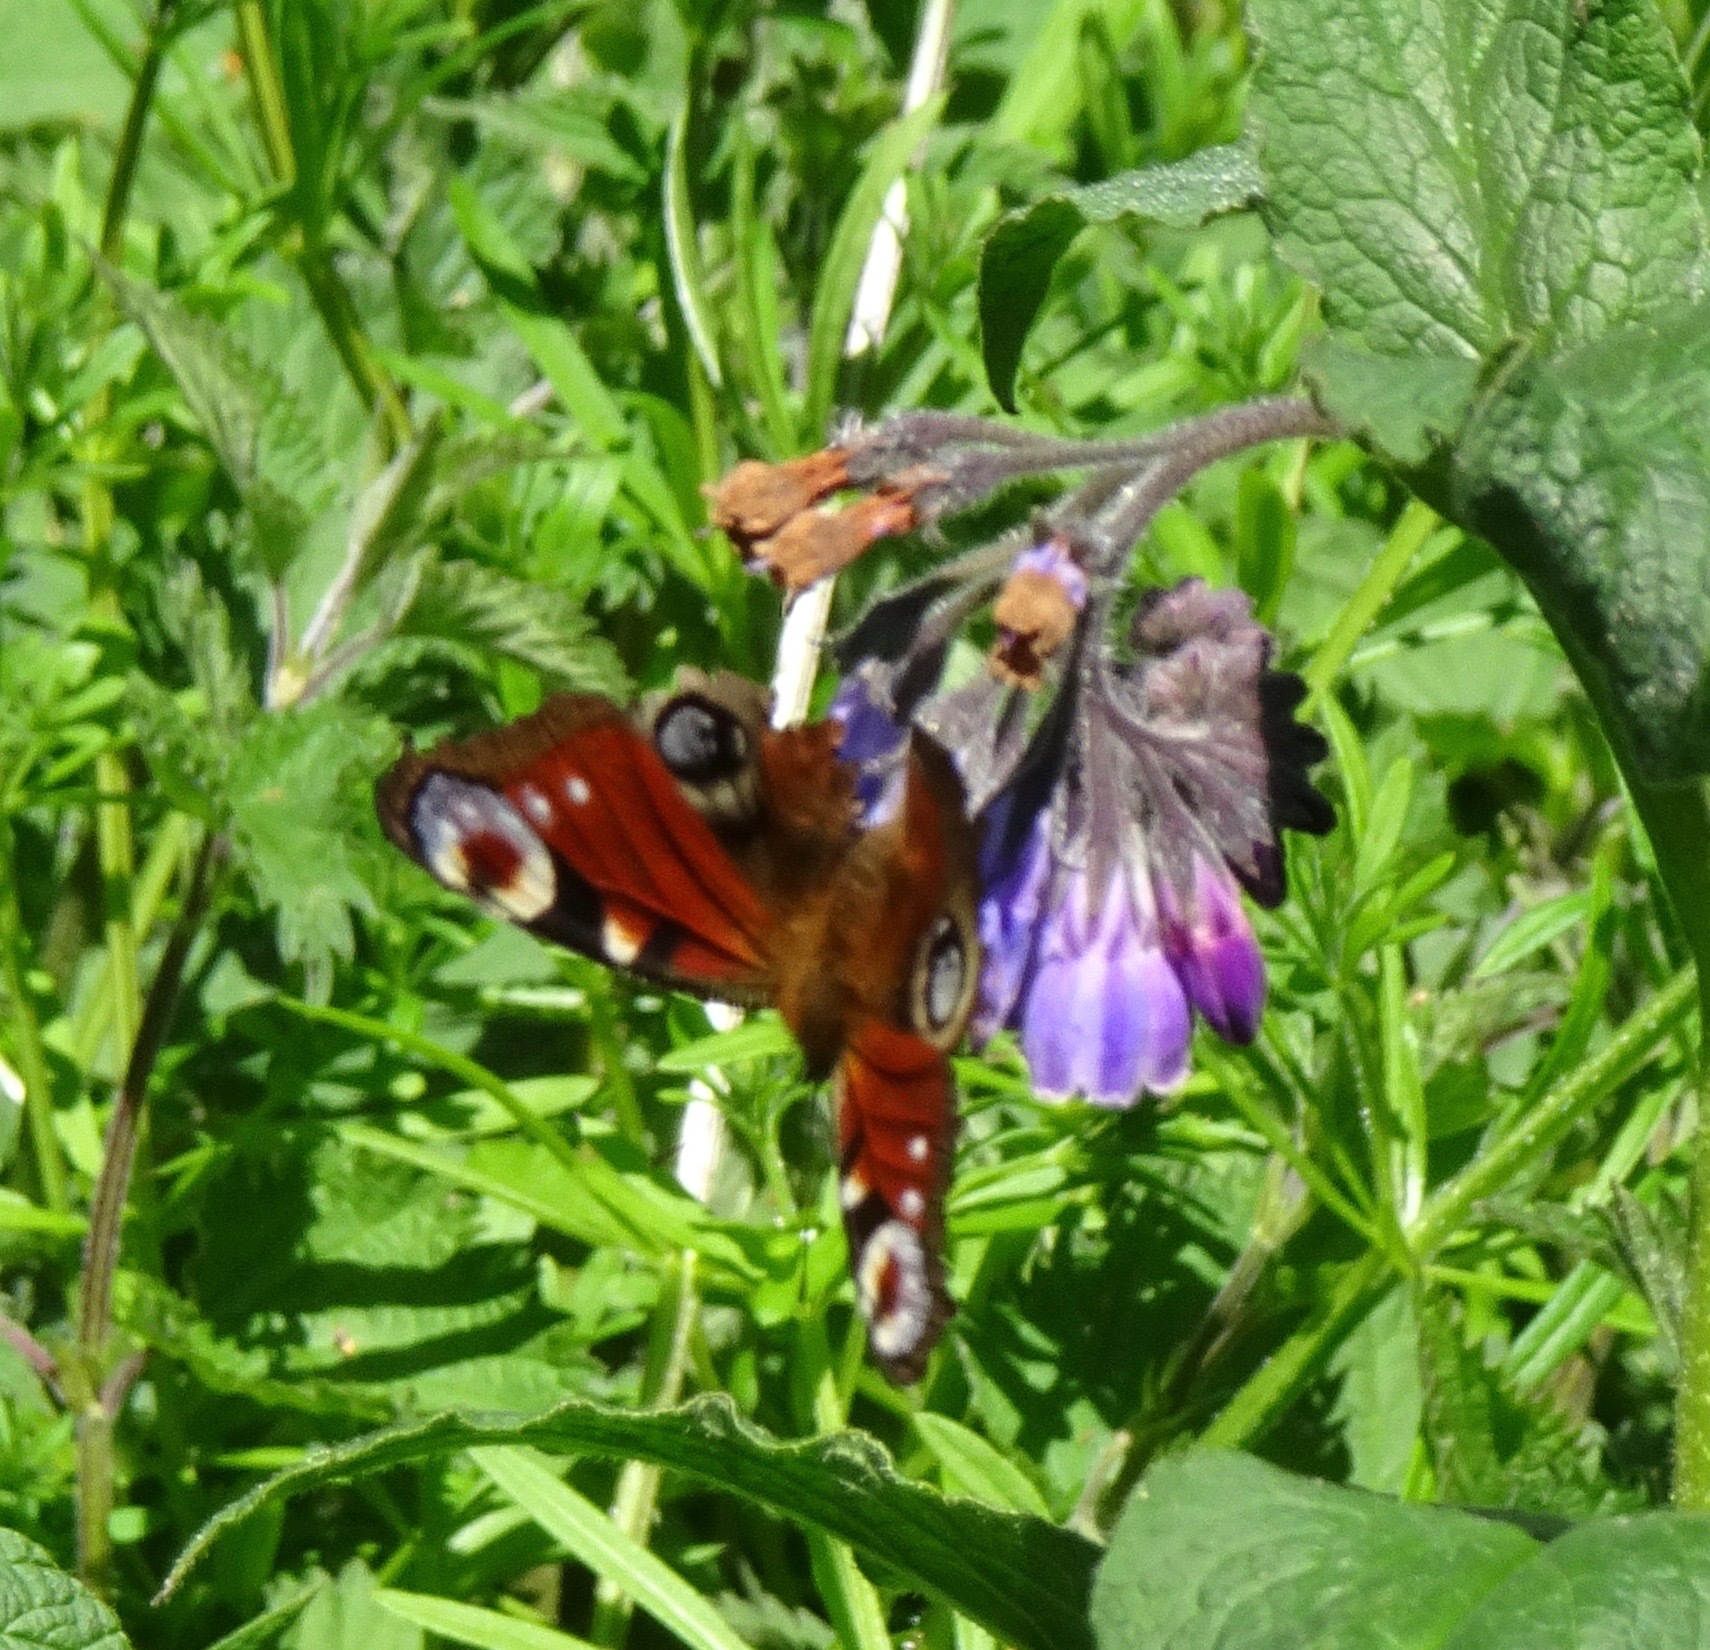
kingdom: Animalia
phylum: Arthropoda
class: Insecta
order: Lepidoptera
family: Nymphalidae
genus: Aglais
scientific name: Aglais io
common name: Peacock
